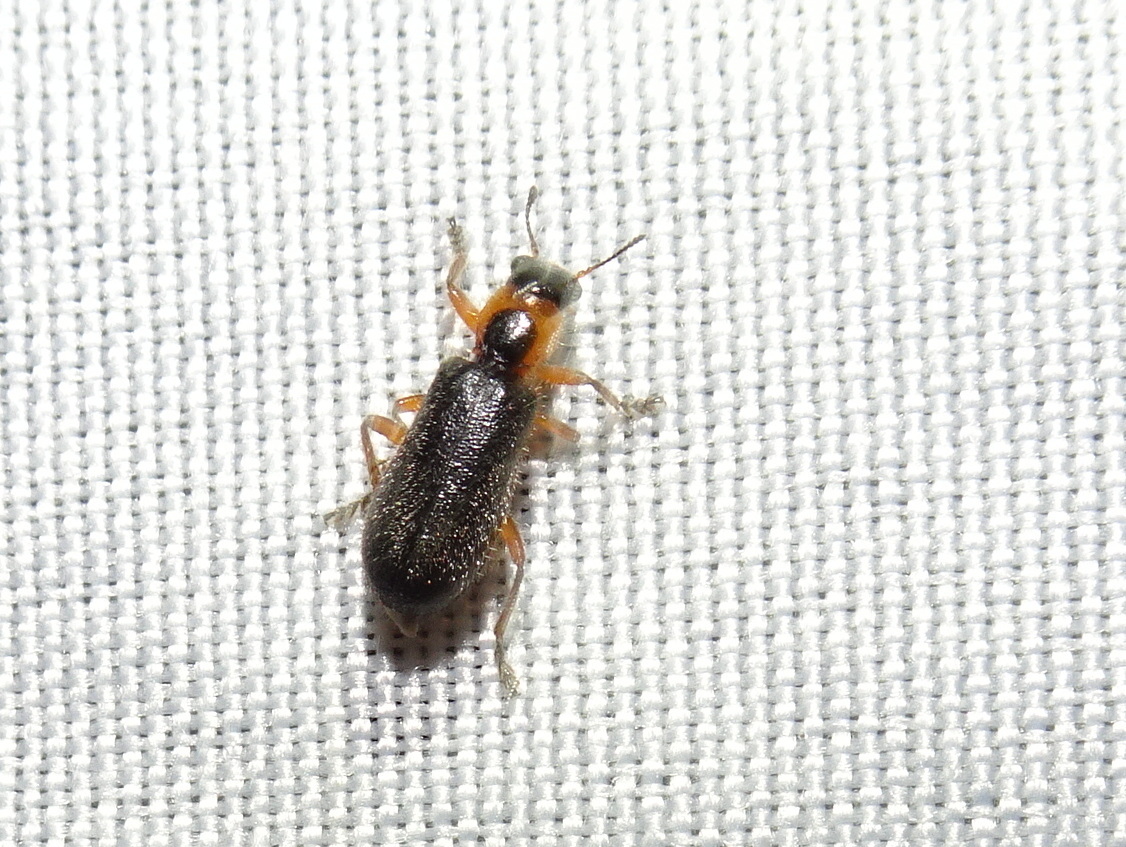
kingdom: Animalia
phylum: Arthropoda
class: Insecta
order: Coleoptera
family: Cleridae
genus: Placopterus
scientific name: Placopterus thoracicus
